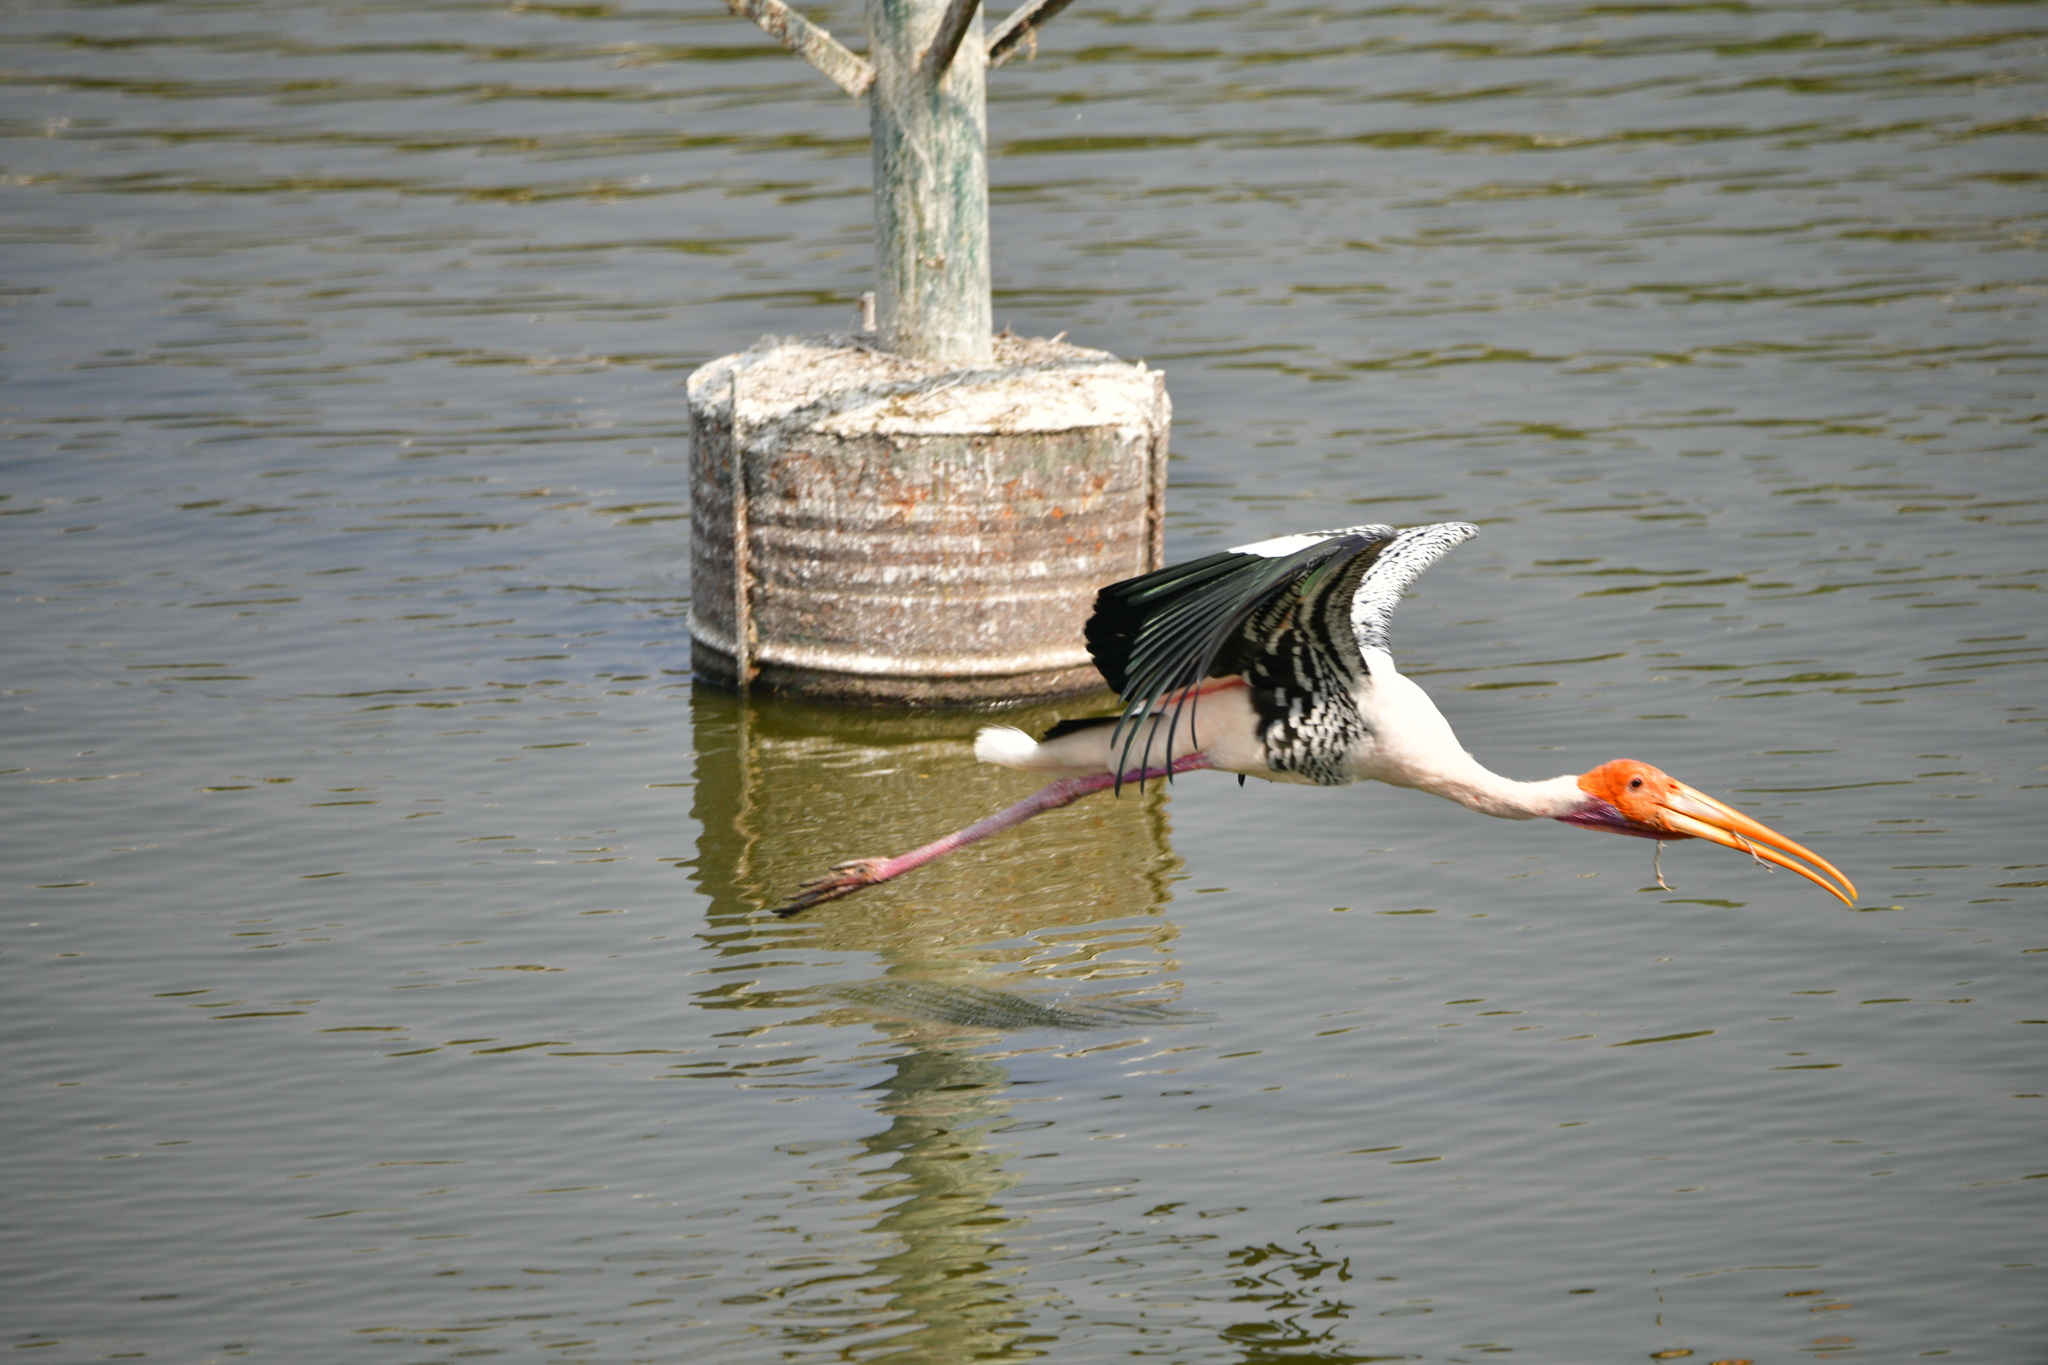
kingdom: Animalia
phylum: Chordata
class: Aves
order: Ciconiiformes
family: Ciconiidae
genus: Mycteria
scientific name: Mycteria leucocephala
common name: Painted stork
